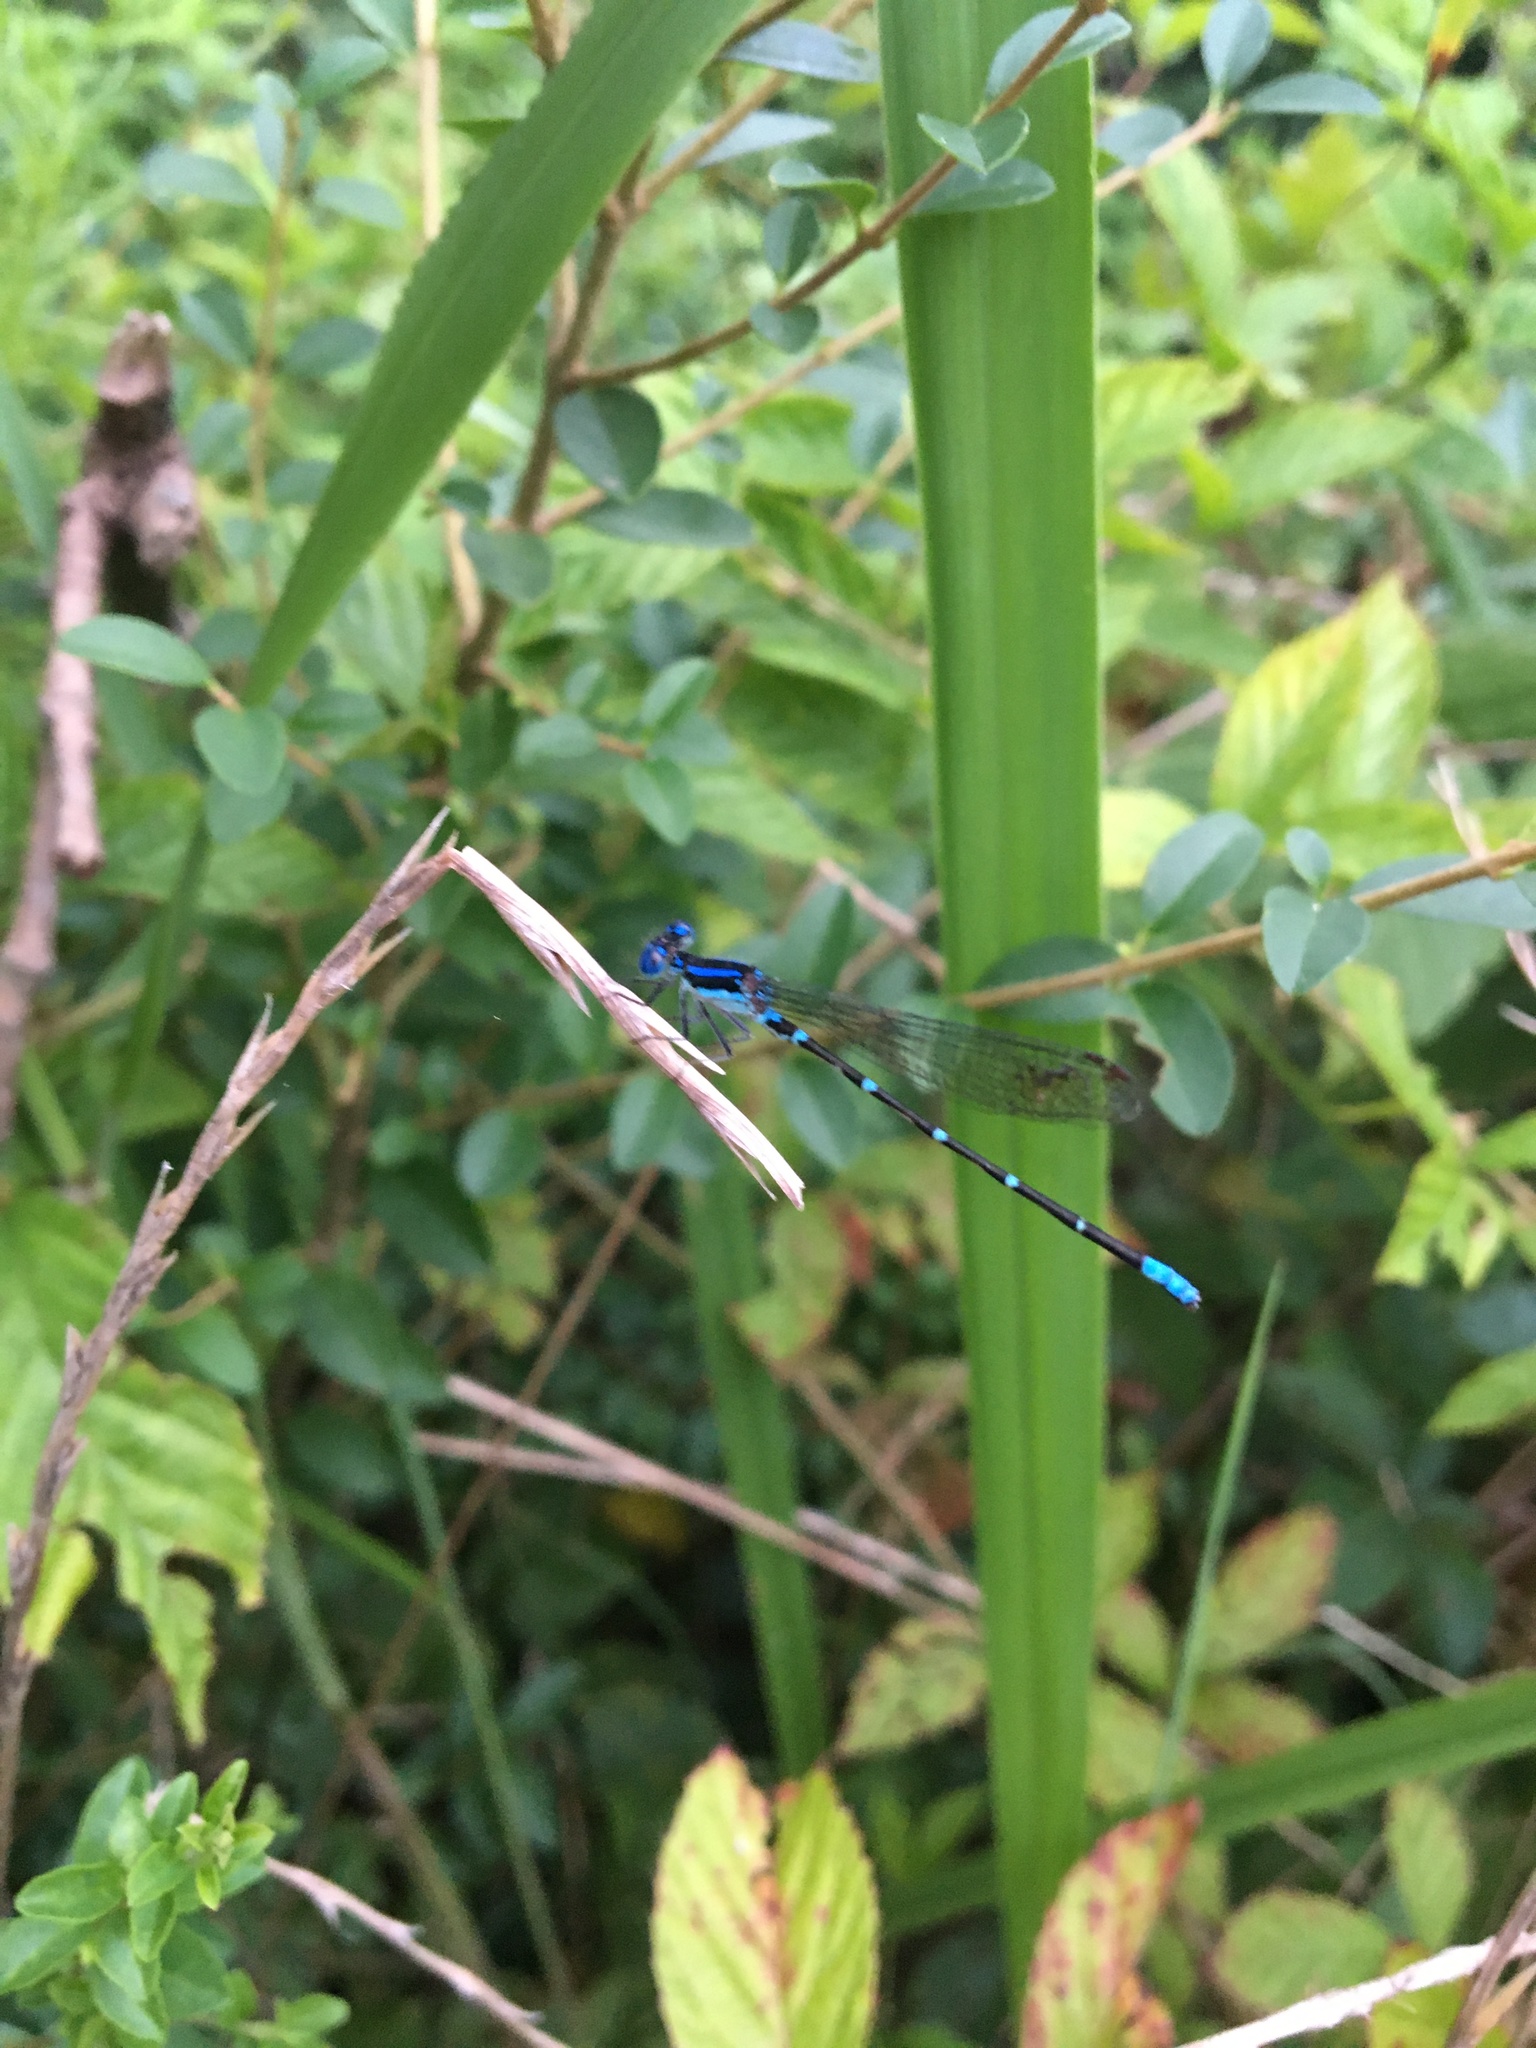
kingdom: Animalia
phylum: Arthropoda
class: Insecta
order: Odonata
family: Coenagrionidae
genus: Argia
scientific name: Argia sedula
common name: Blue-ringed dancer
